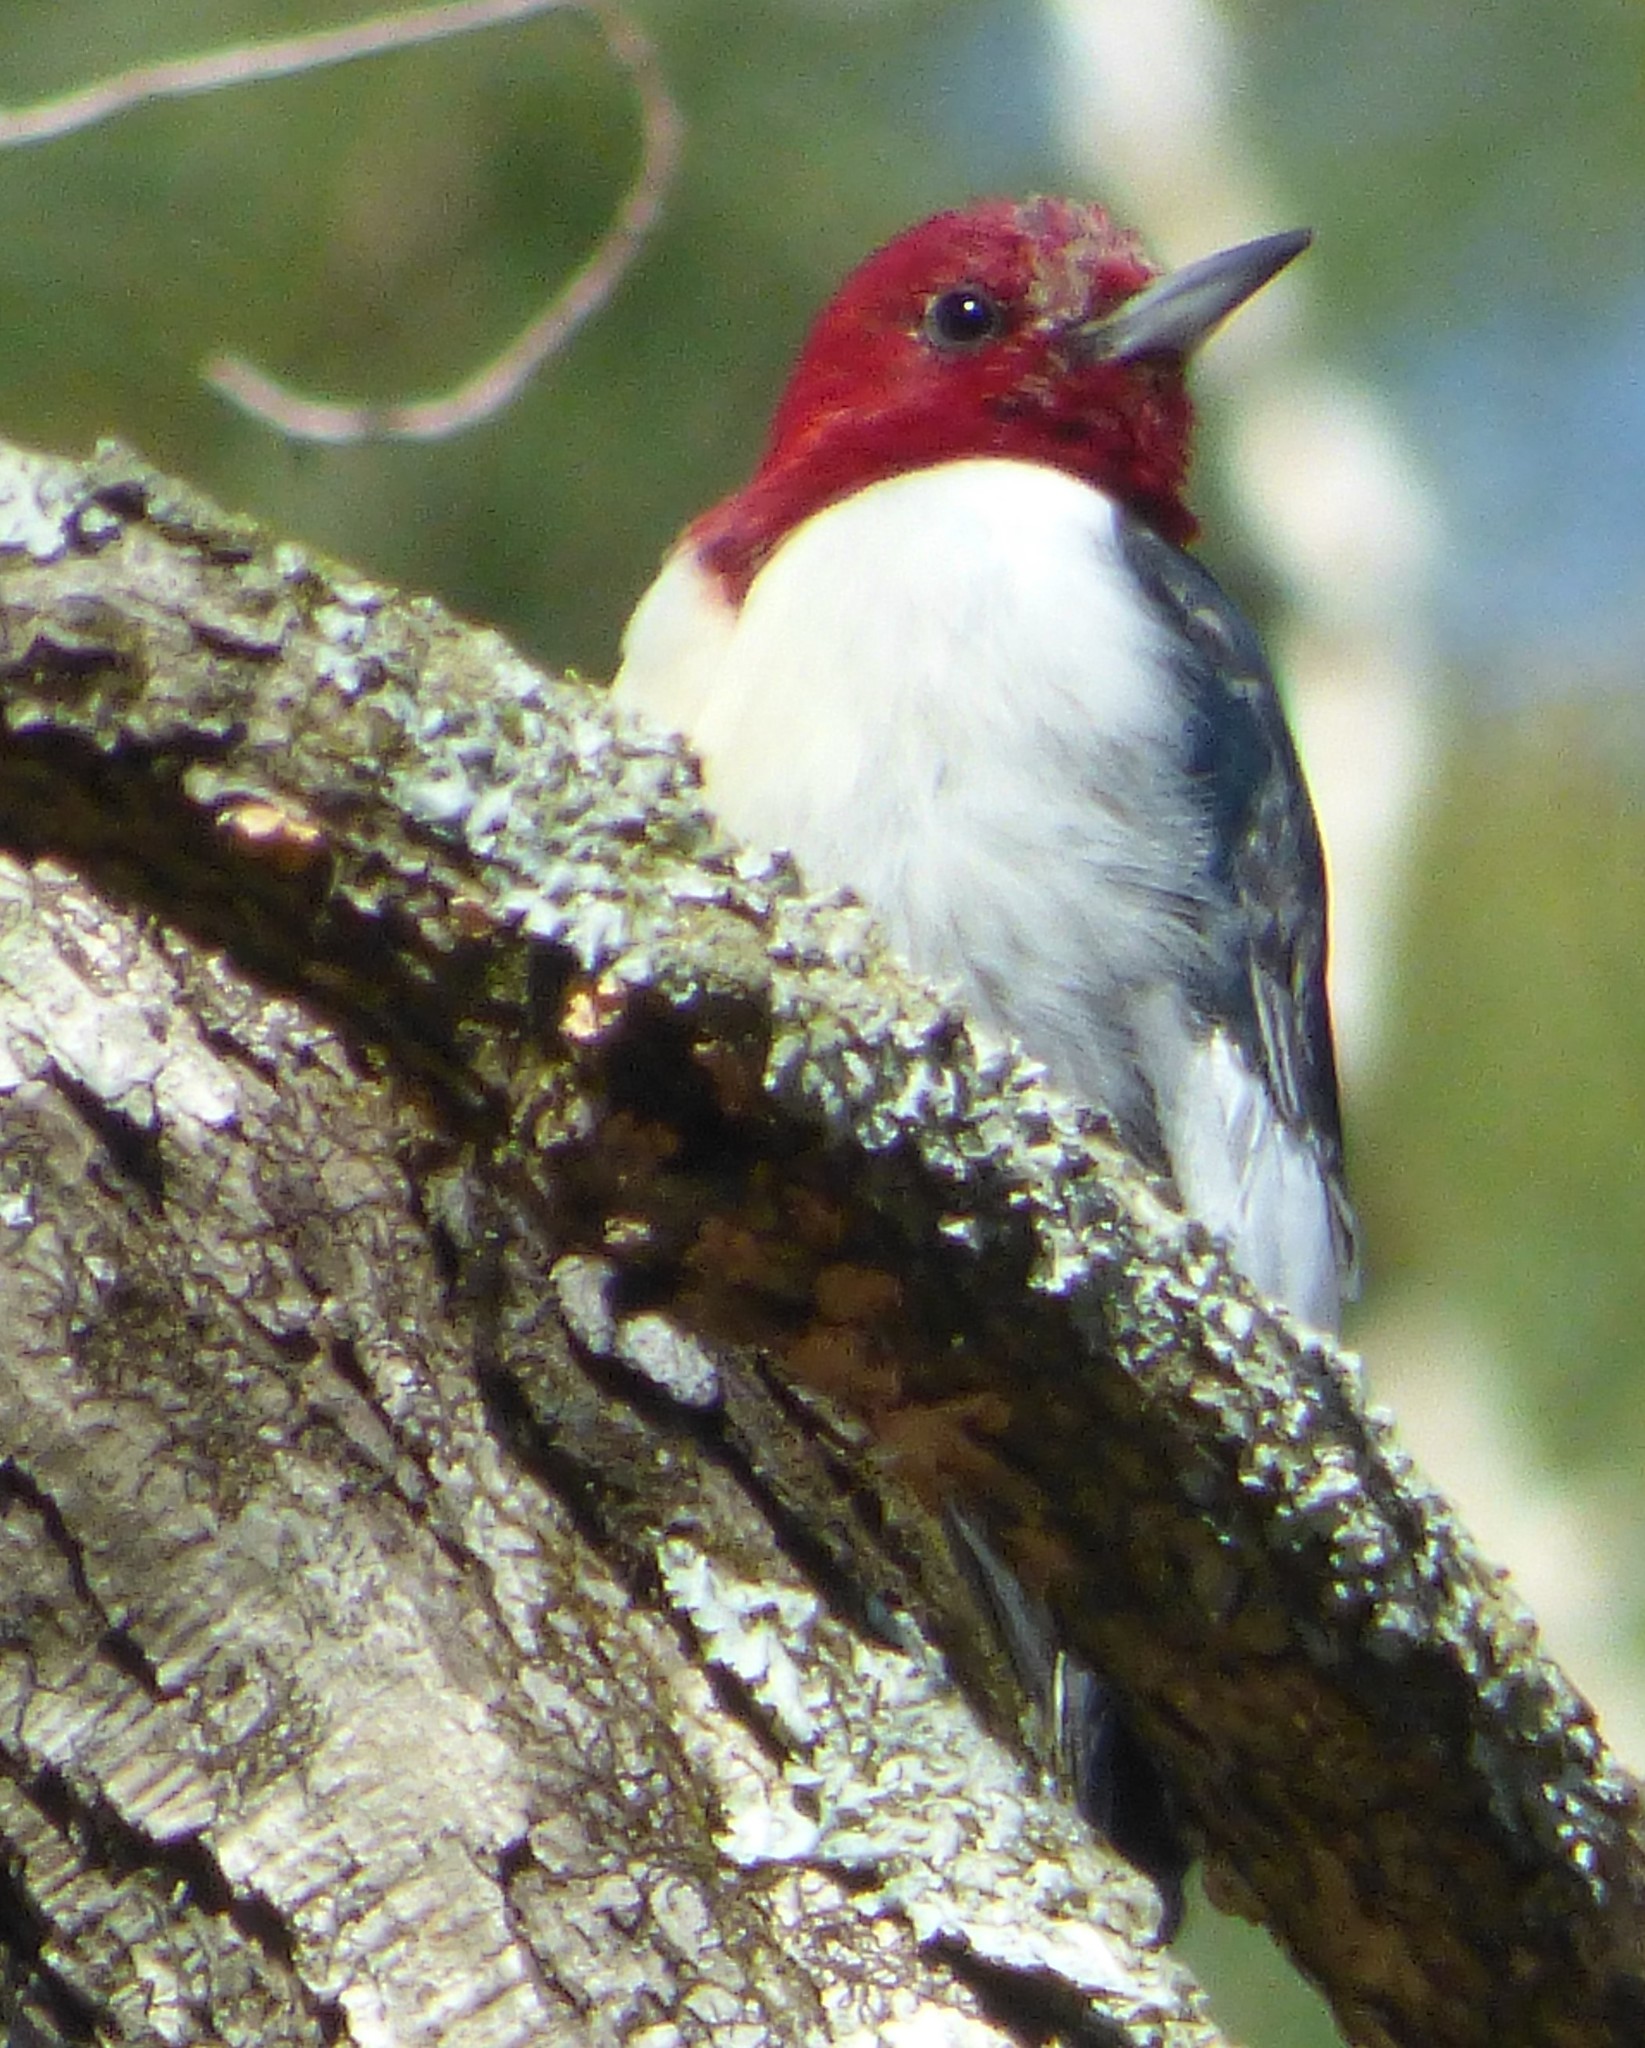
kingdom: Animalia
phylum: Chordata
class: Aves
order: Piciformes
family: Picidae
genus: Melanerpes
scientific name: Melanerpes erythrocephalus
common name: Red-headed woodpecker
